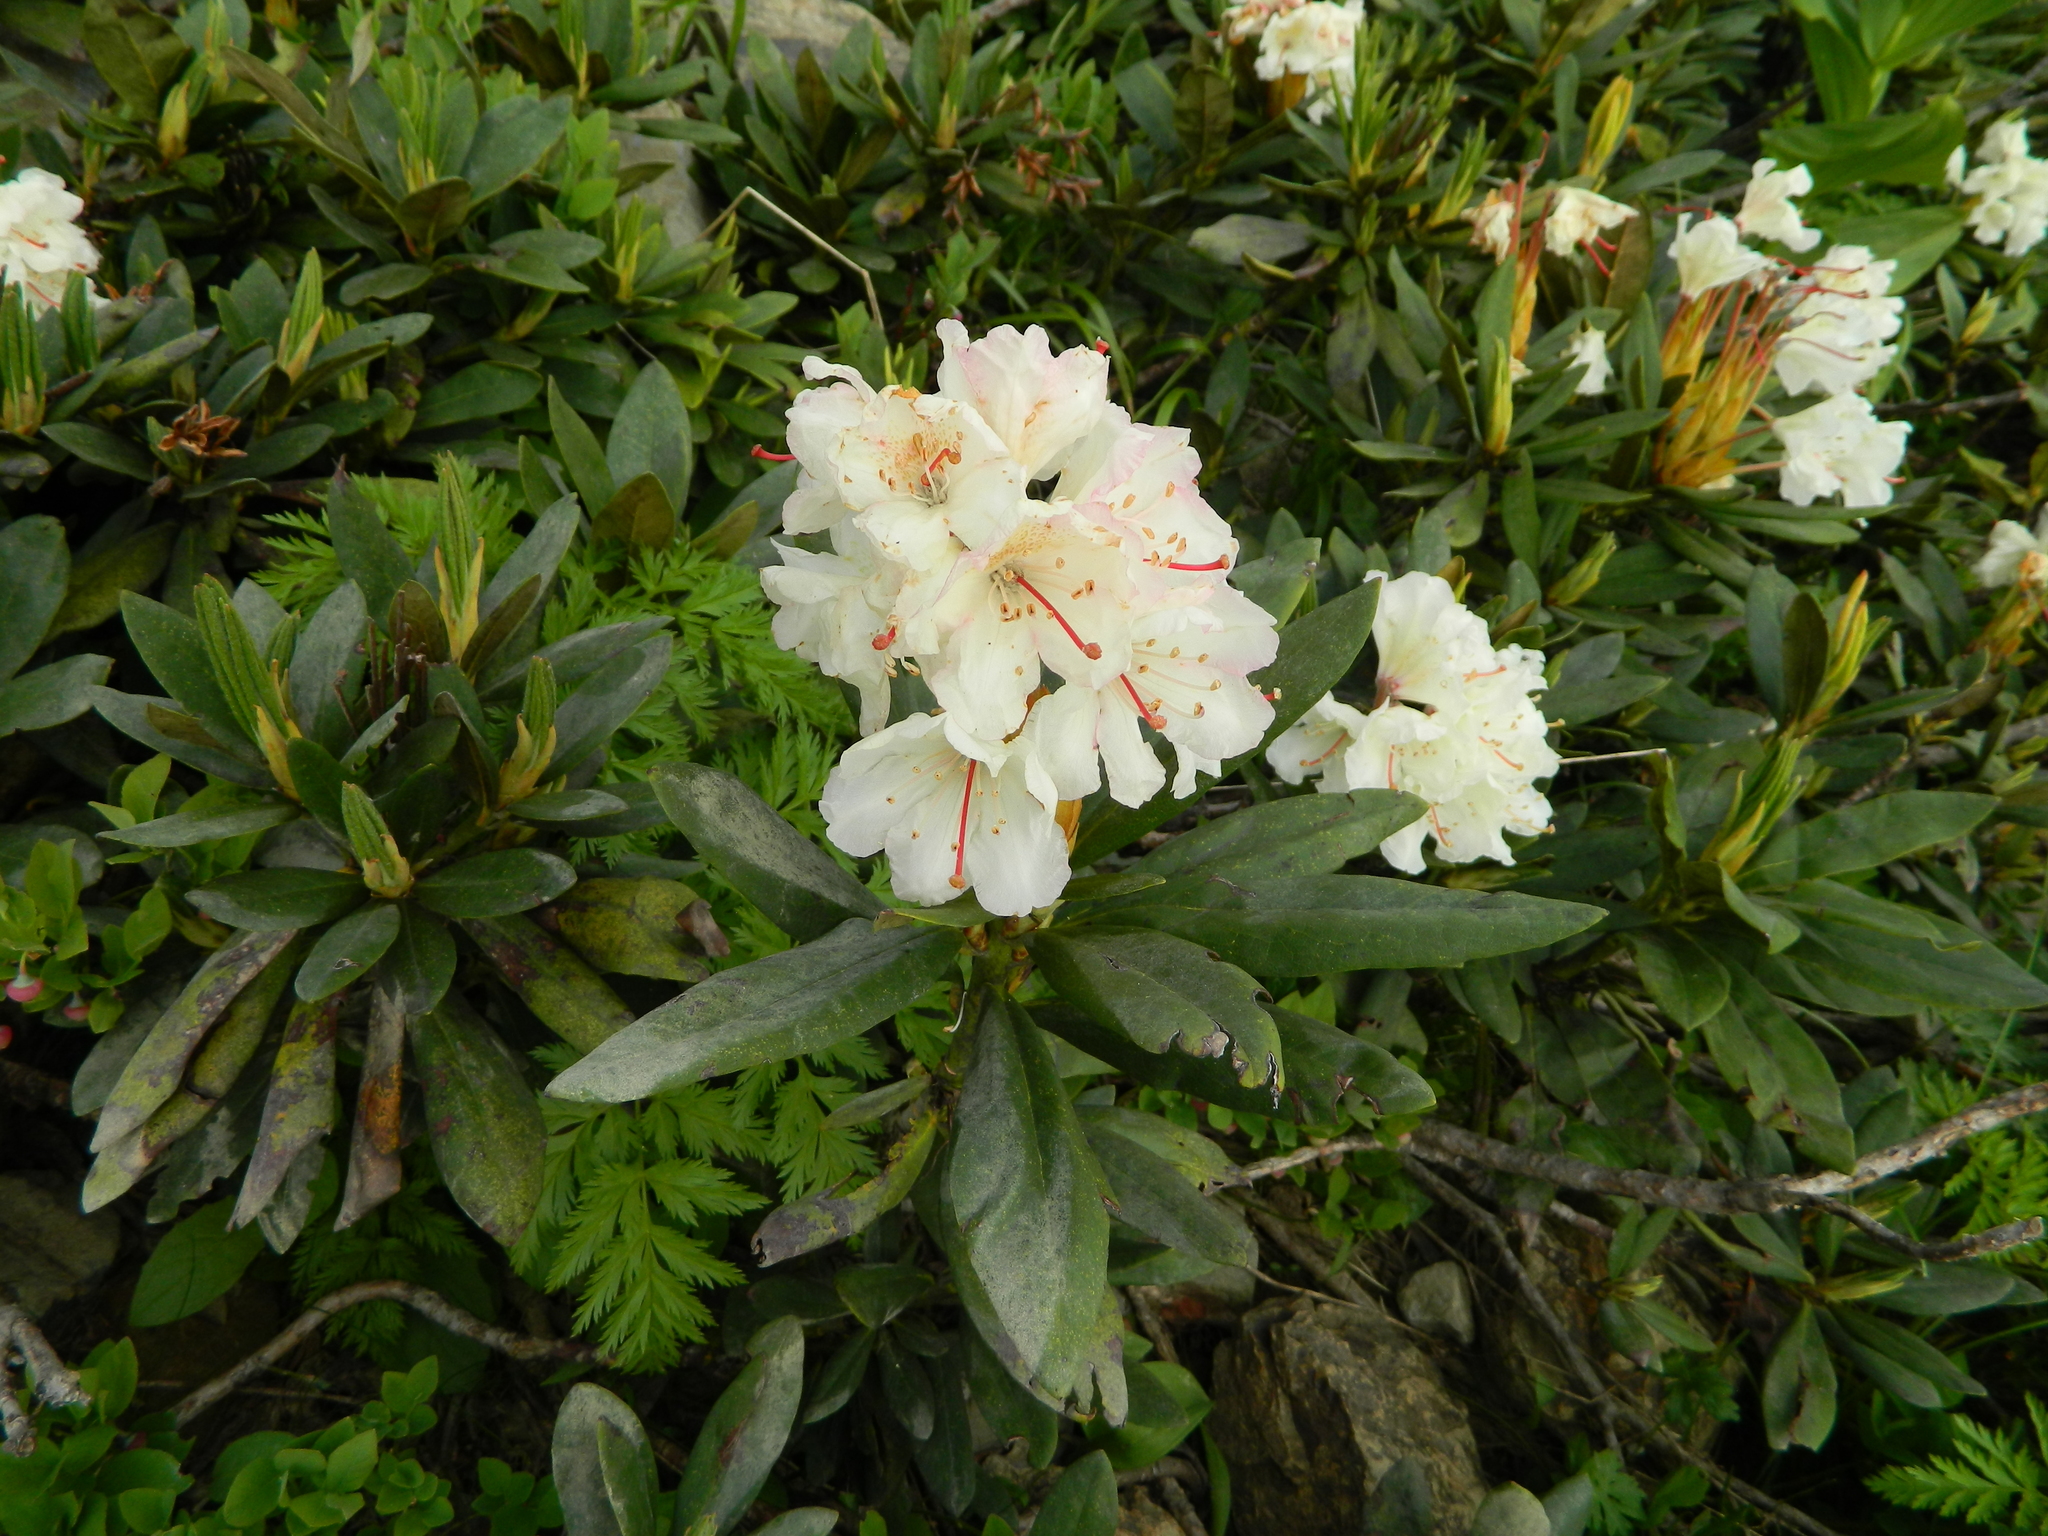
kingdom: Plantae
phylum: Tracheophyta
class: Magnoliopsida
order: Ericales
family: Ericaceae
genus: Rhododendron
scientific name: Rhododendron caucasicum
